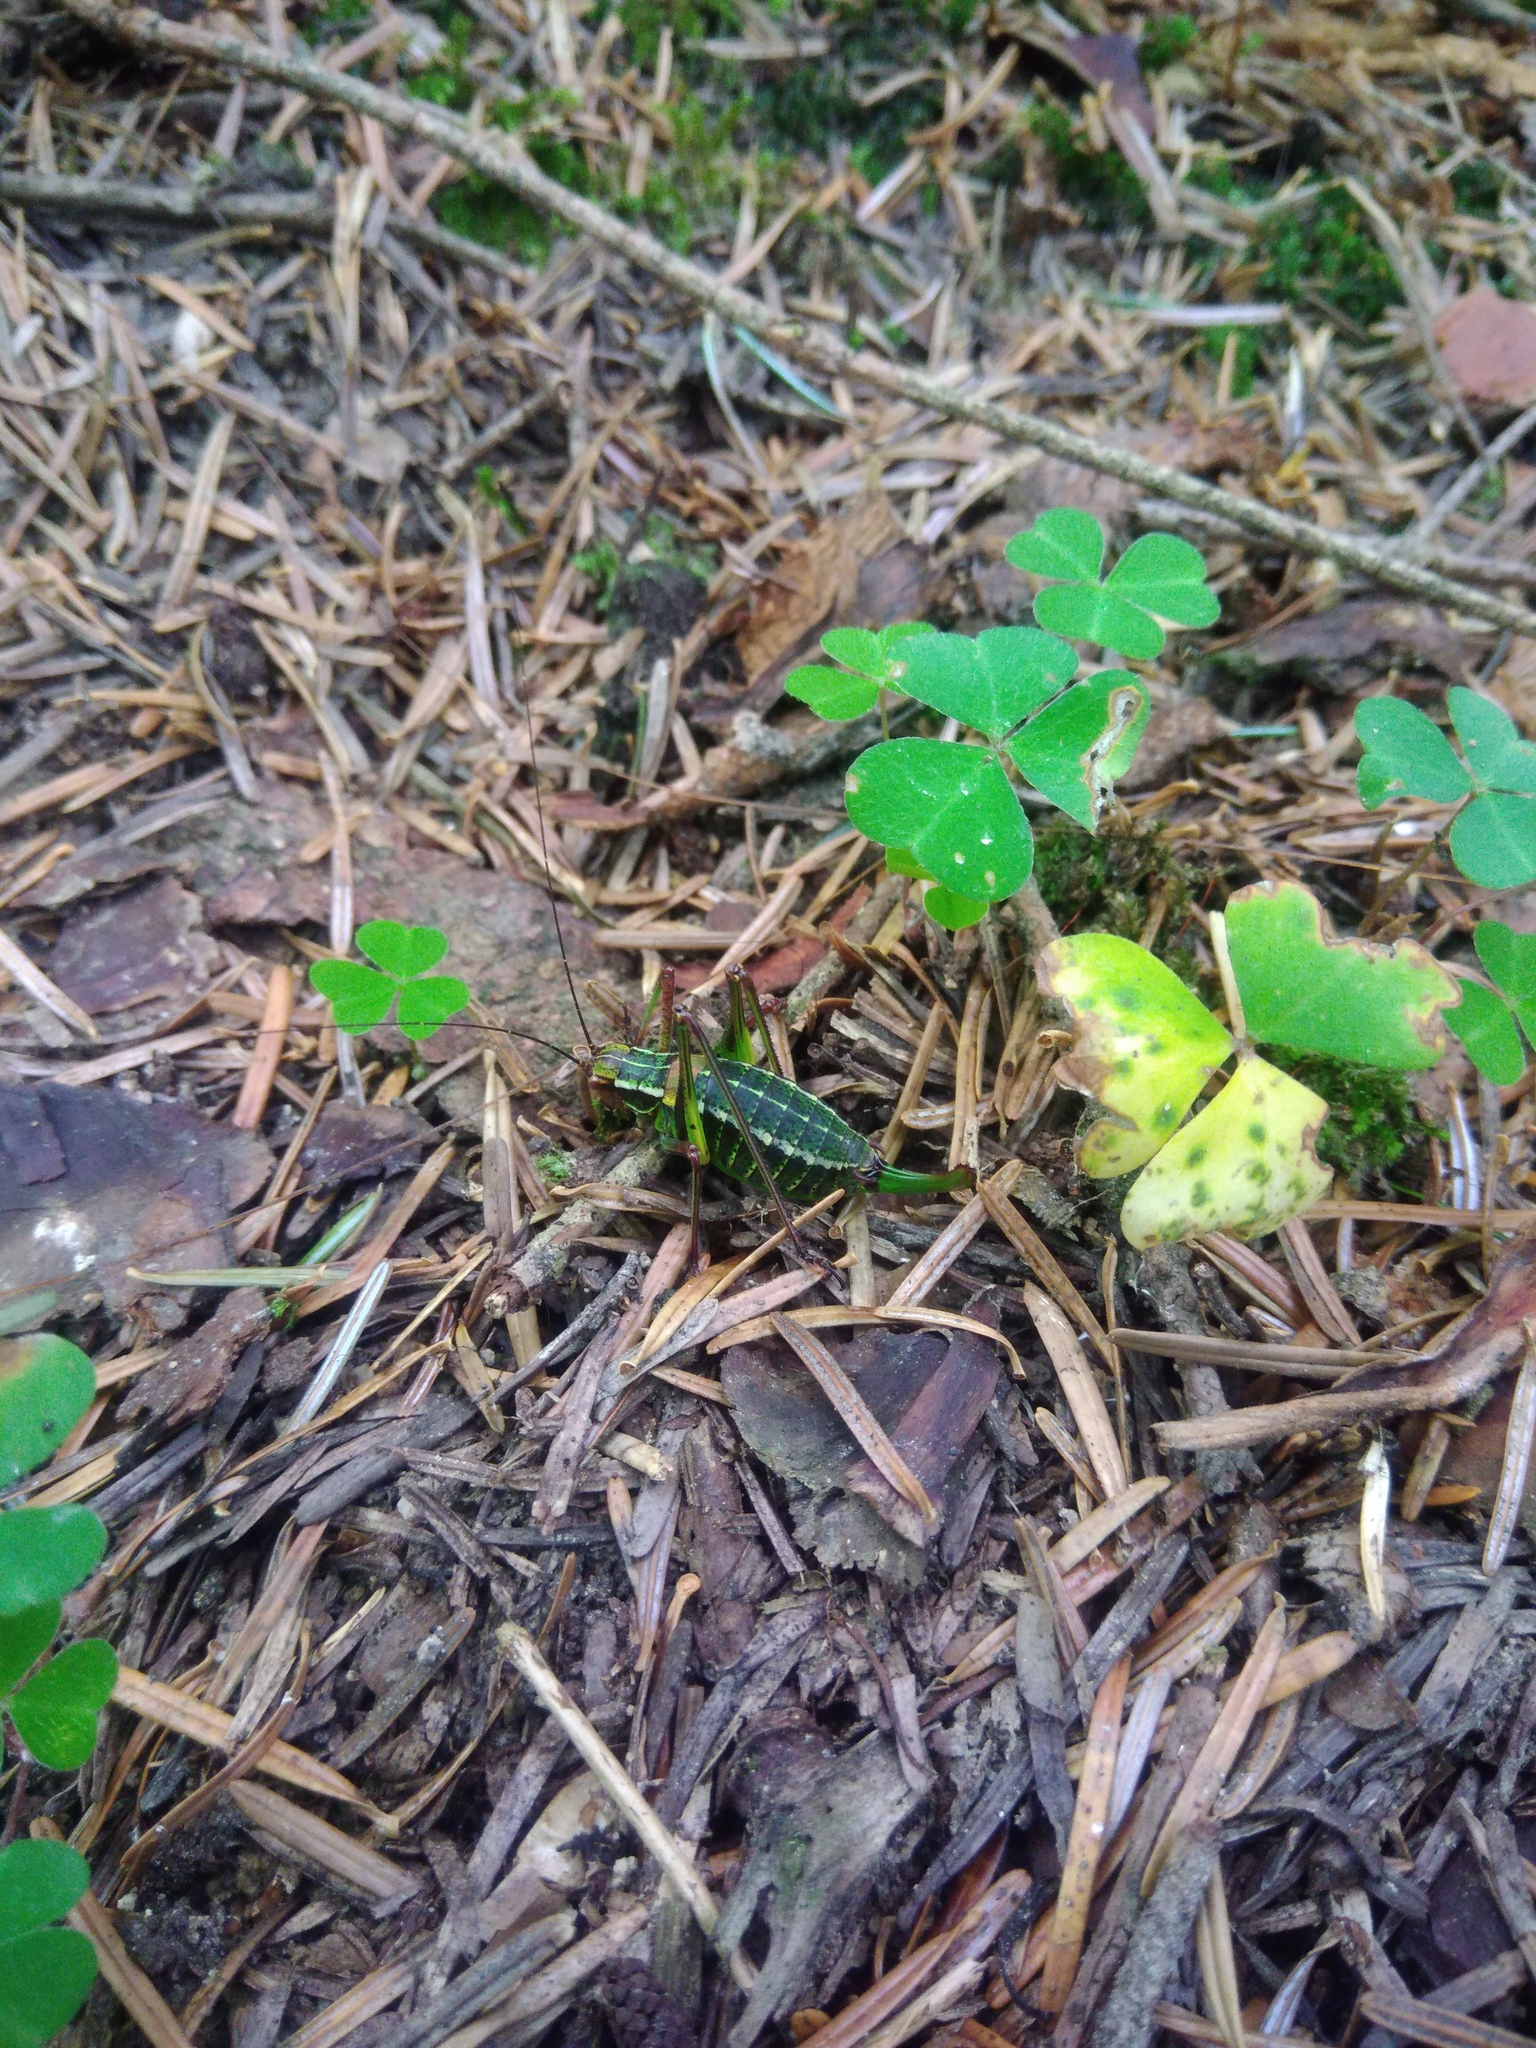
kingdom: Animalia
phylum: Arthropoda
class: Insecta
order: Orthoptera
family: Tettigoniidae
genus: Barbitistes
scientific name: Barbitistes constrictus
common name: Eastern saw-tailed bush cricket
